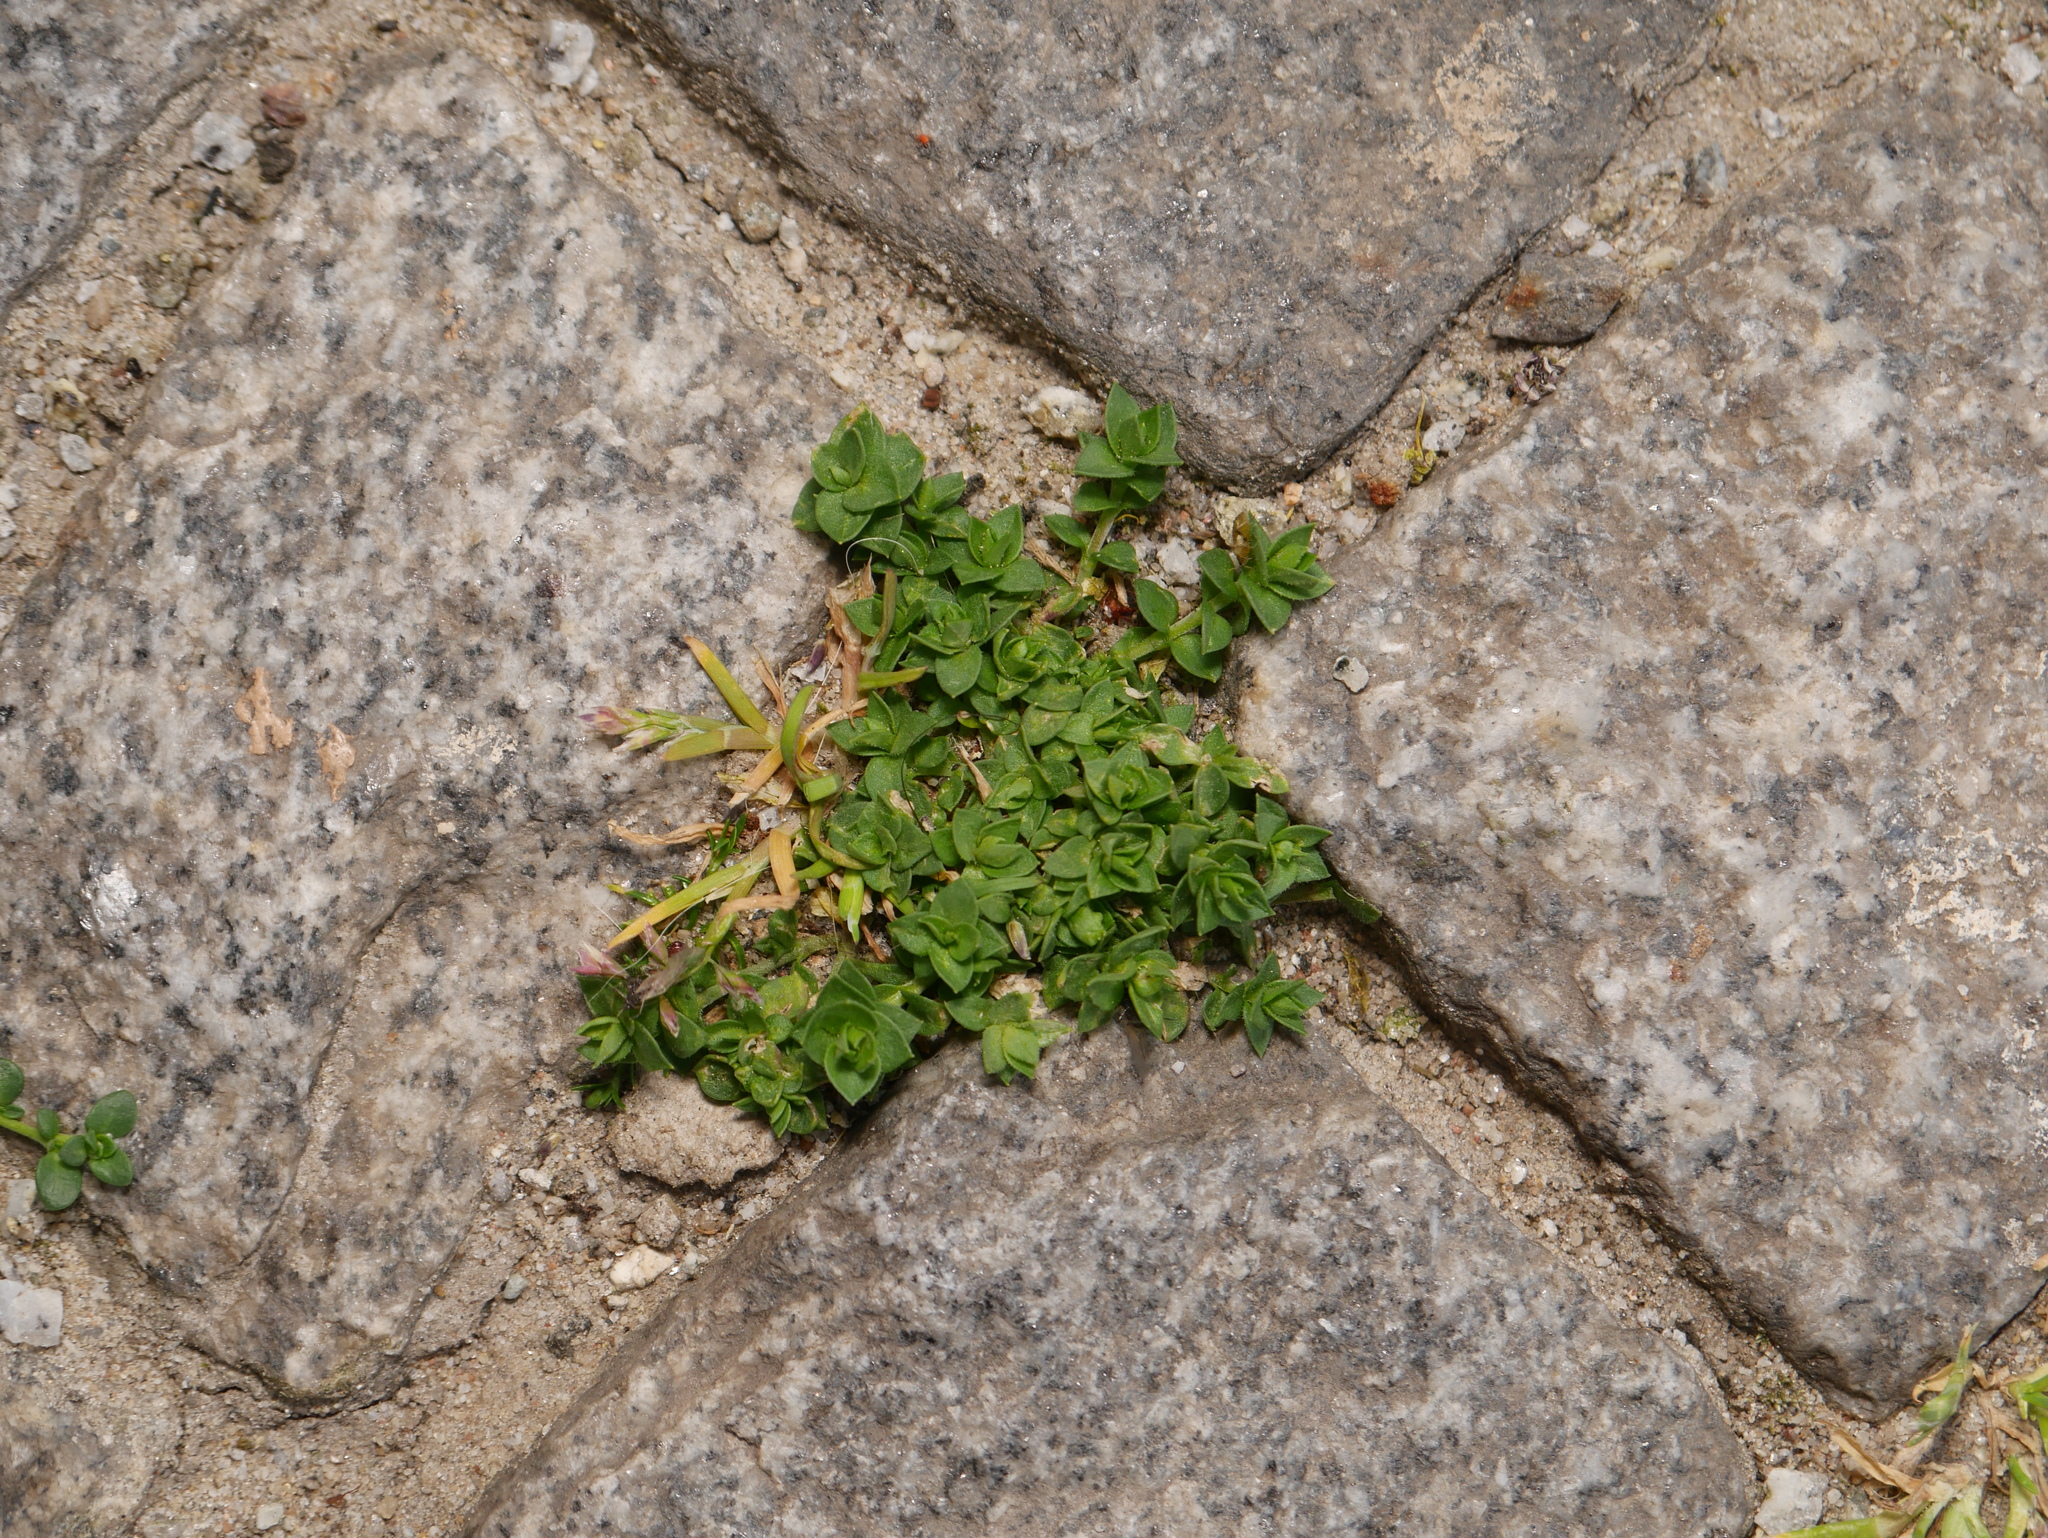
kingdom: Plantae
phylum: Tracheophyta
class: Magnoliopsida
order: Caryophyllales
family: Caryophyllaceae
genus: Herniaria
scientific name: Herniaria glabra
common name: Smooth rupturewort
